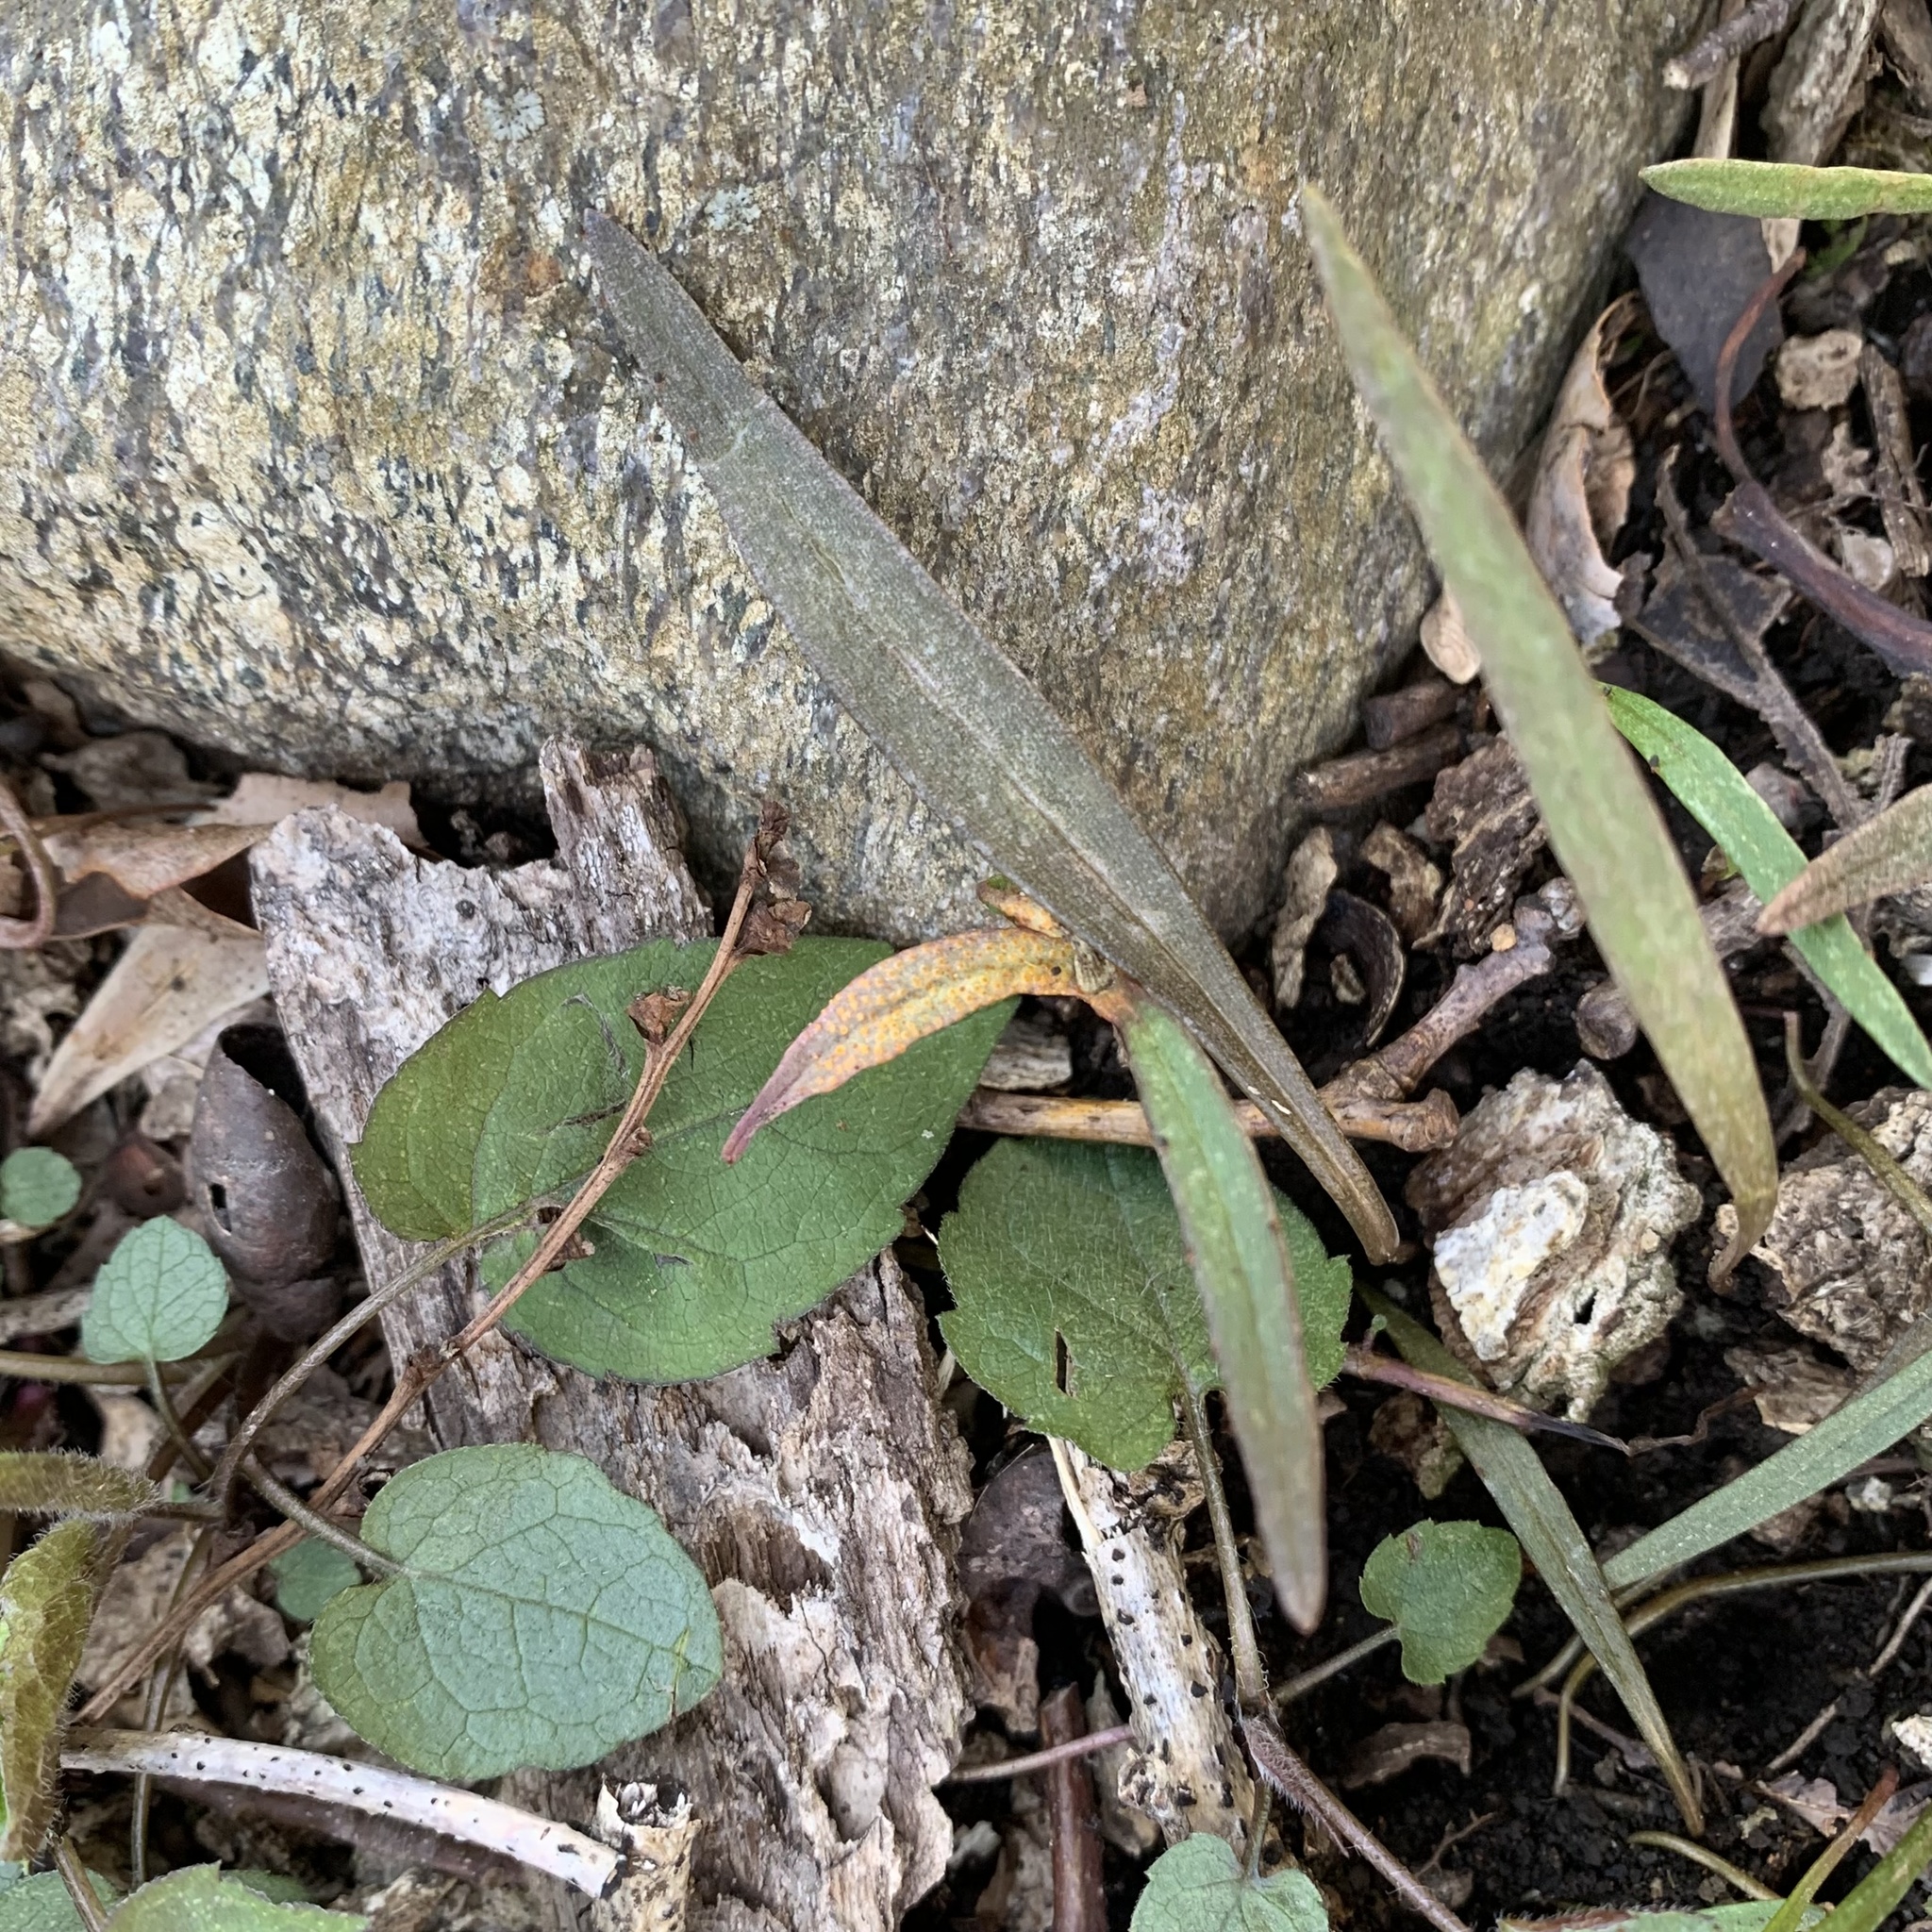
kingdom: Fungi
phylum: Basidiomycota
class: Pucciniomycetes
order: Pucciniales
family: Pucciniaceae
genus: Puccinia
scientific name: Puccinia mariae-wilsoniae
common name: Spring beauty rust
